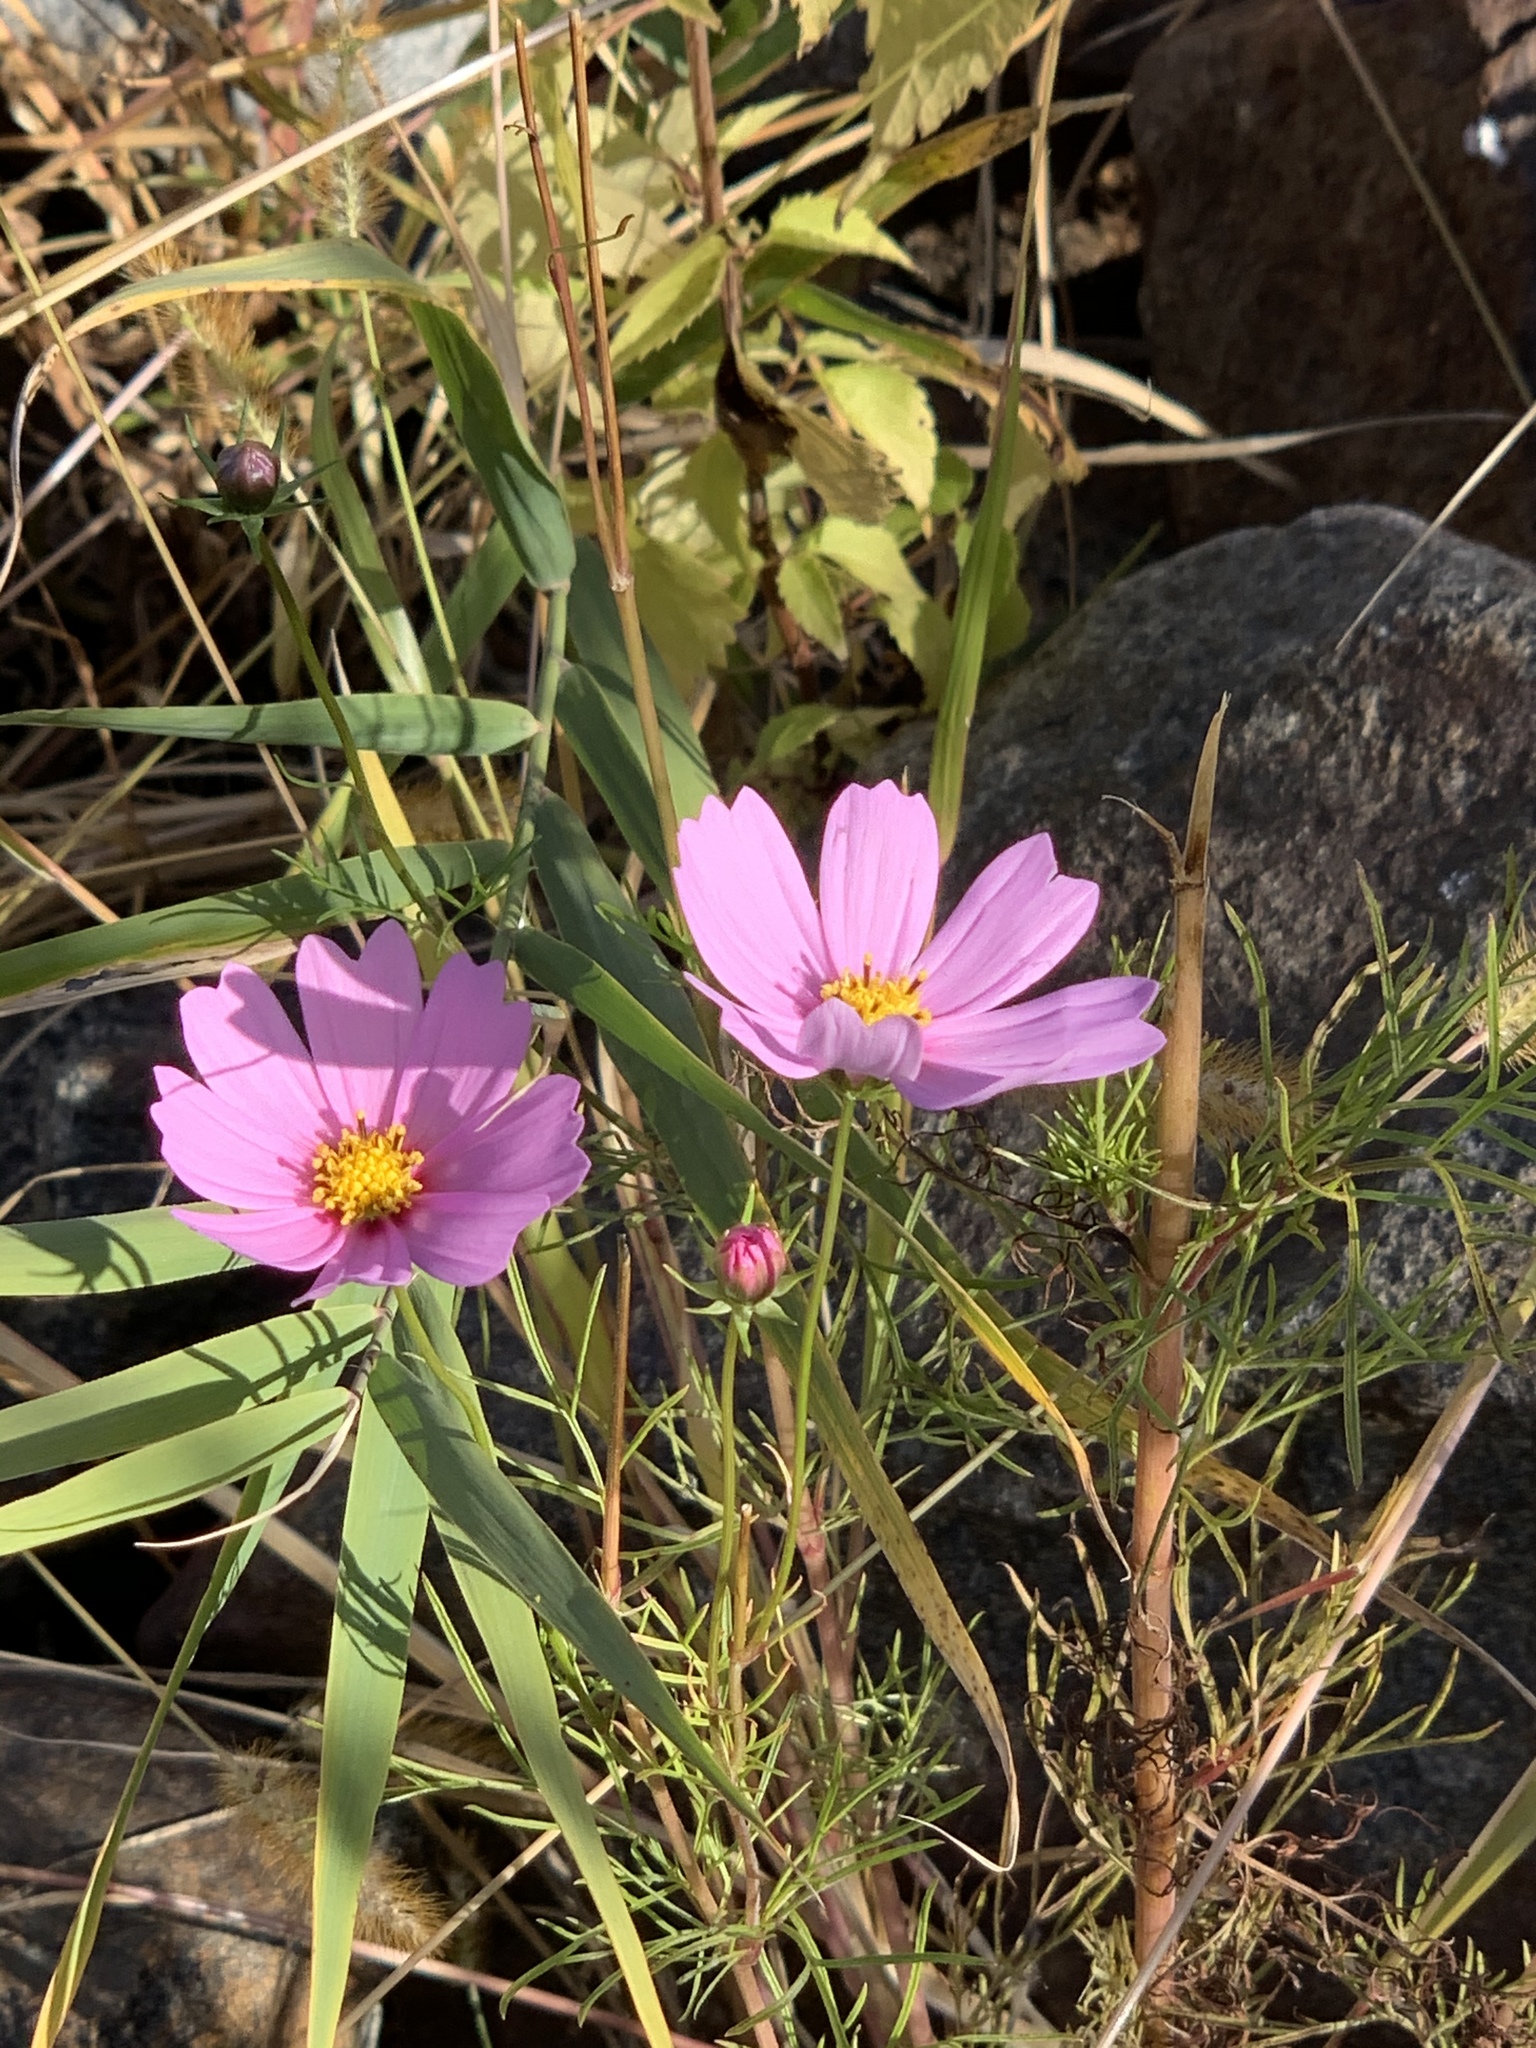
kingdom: Plantae
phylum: Tracheophyta
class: Magnoliopsida
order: Asterales
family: Asteraceae
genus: Cosmos
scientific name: Cosmos bipinnatus
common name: Garden cosmos
